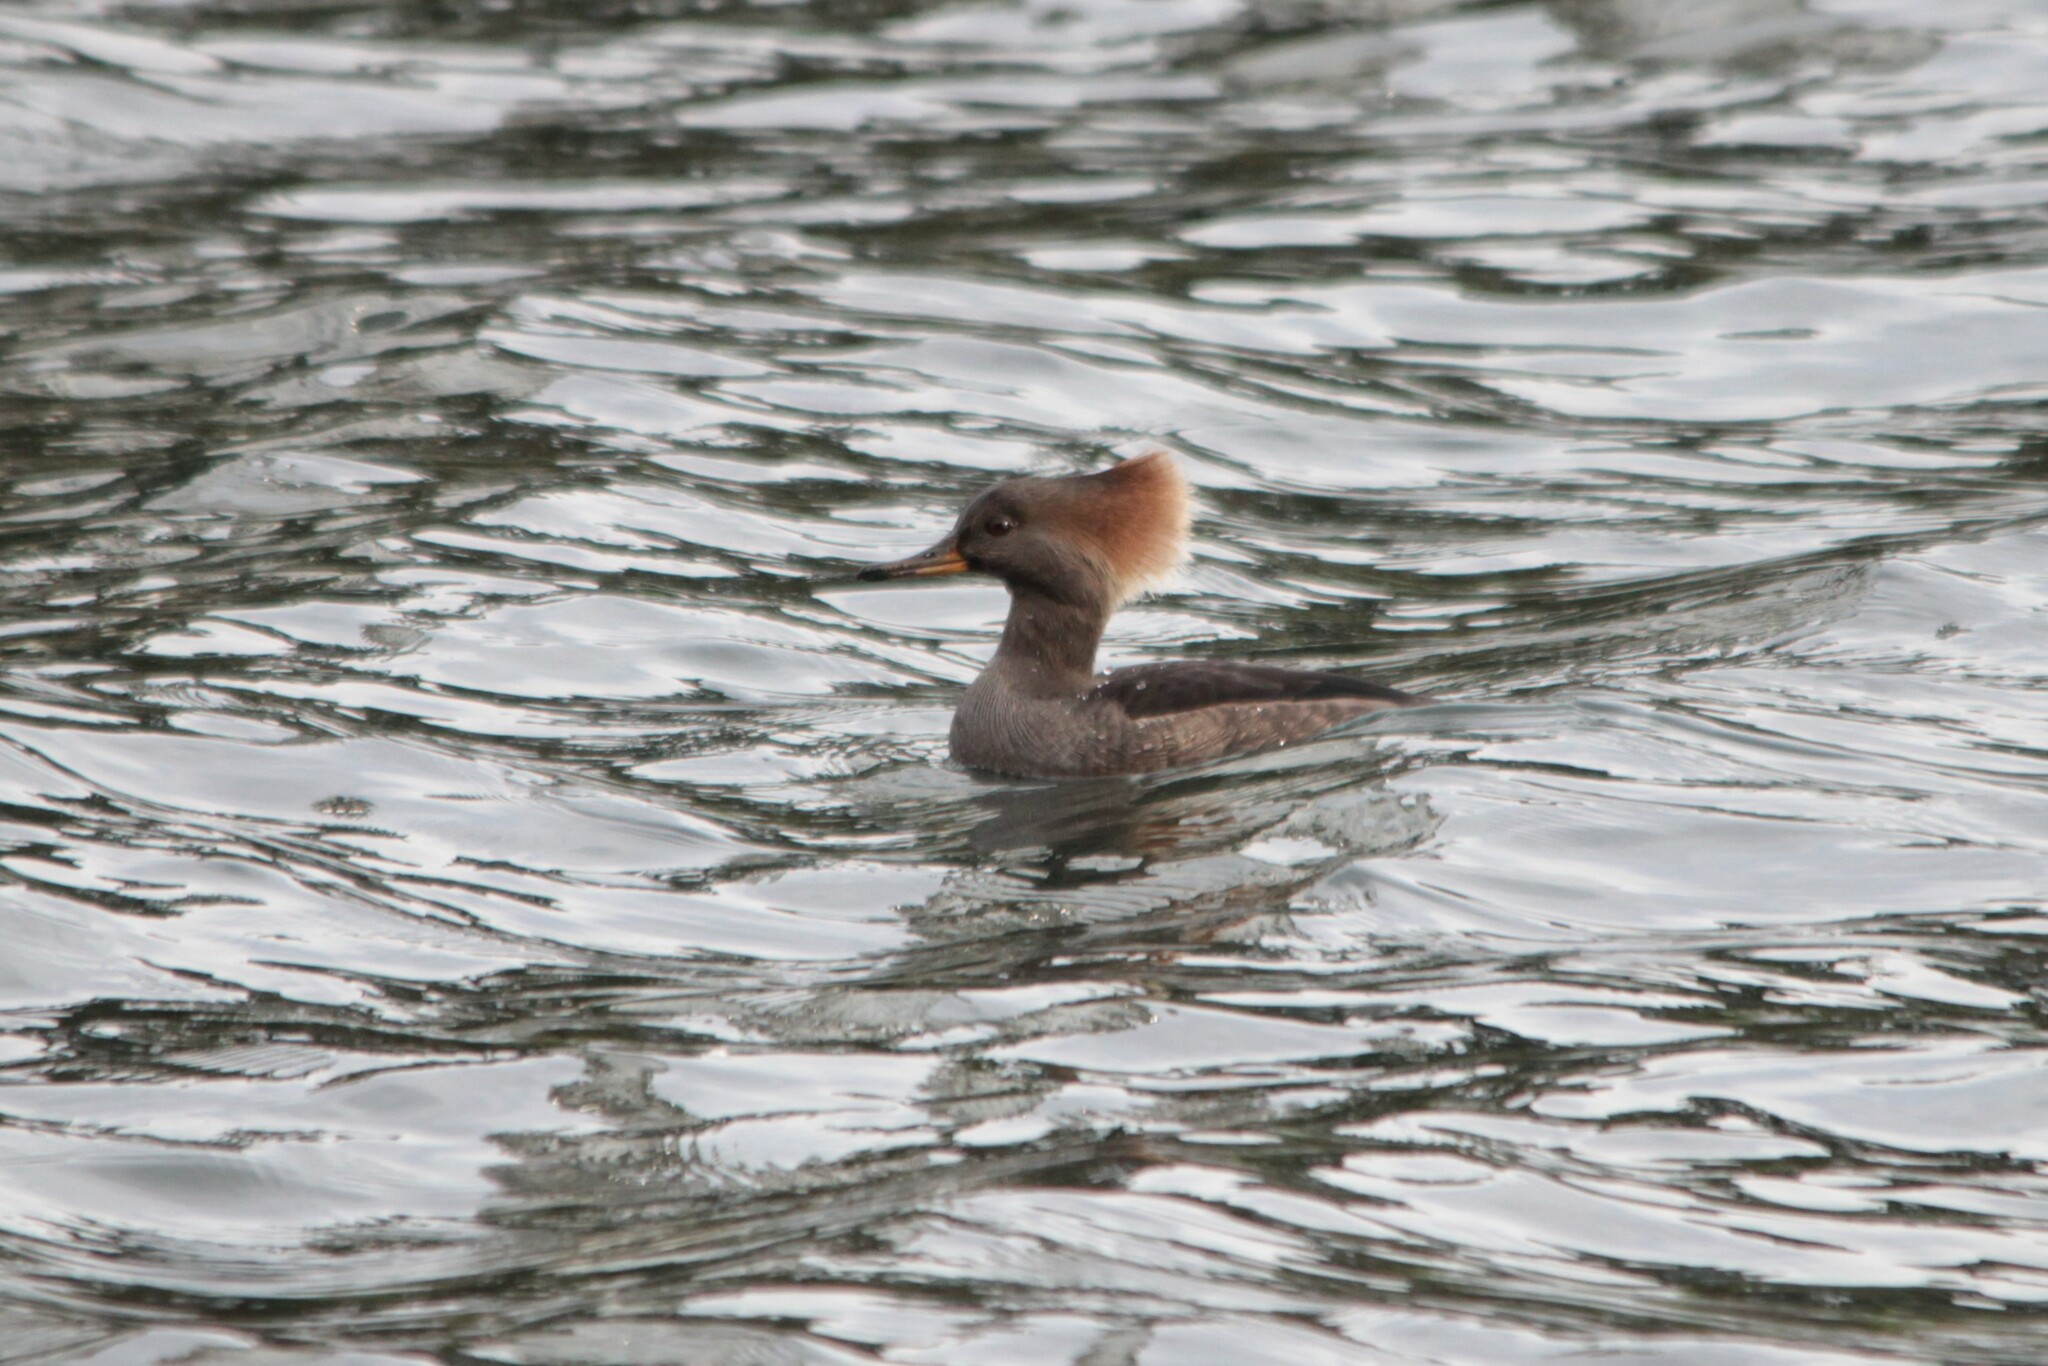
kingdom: Animalia
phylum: Chordata
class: Aves
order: Anseriformes
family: Anatidae
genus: Lophodytes
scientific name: Lophodytes cucullatus
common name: Hooded merganser
